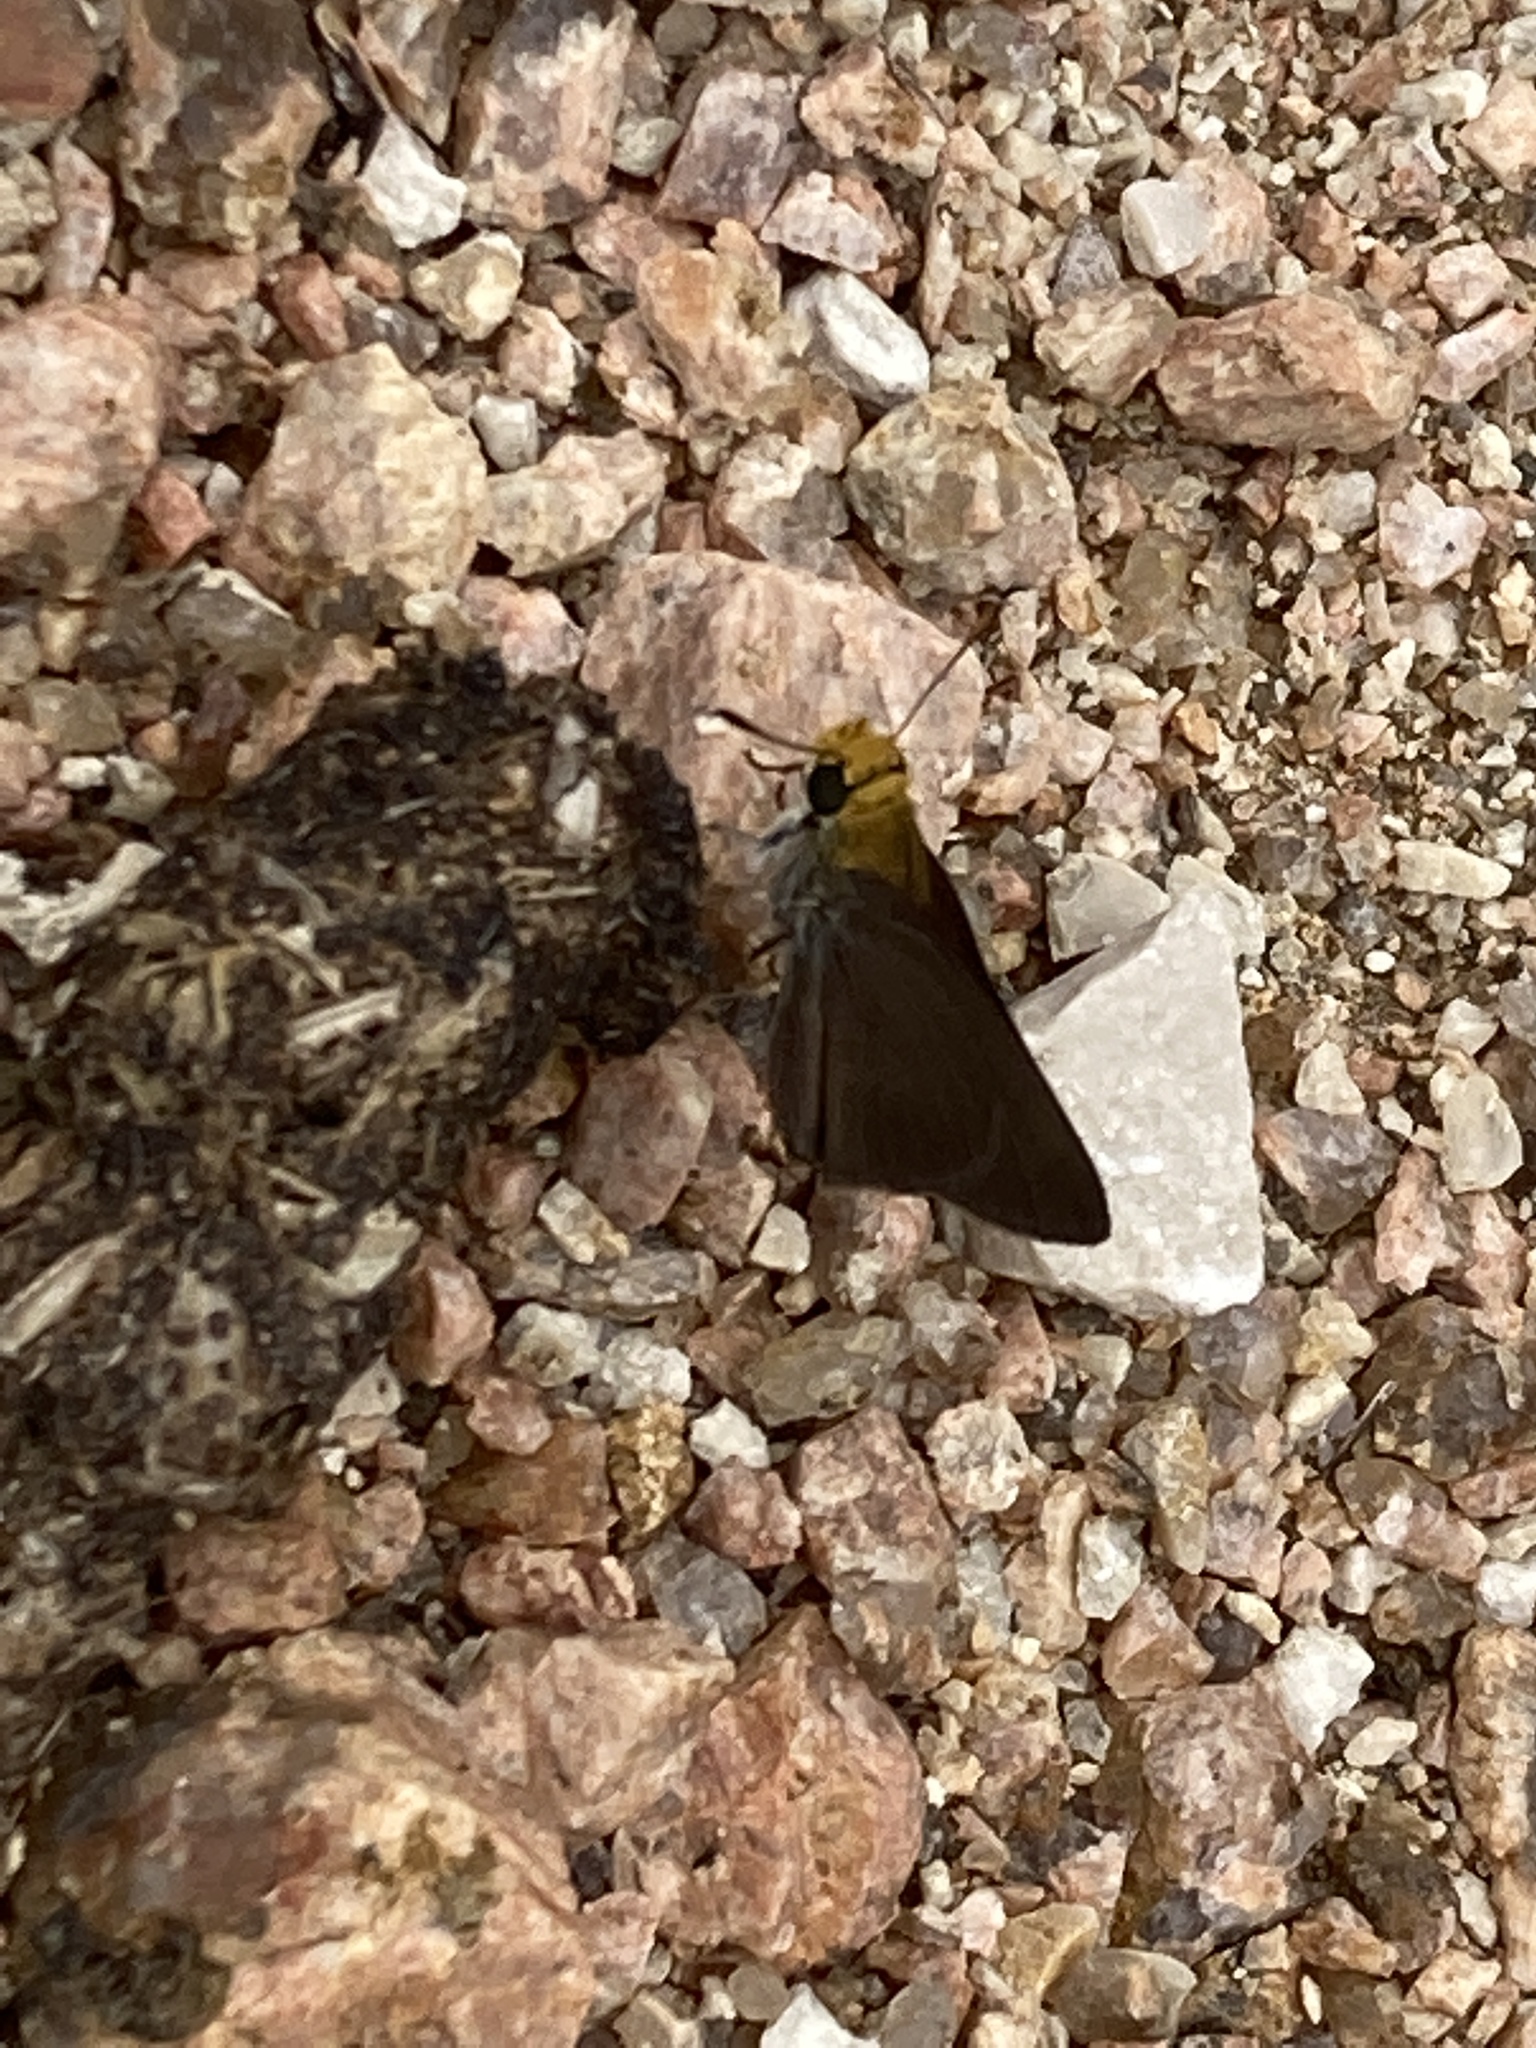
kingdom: Animalia
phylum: Arthropoda
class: Insecta
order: Lepidoptera
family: Hesperiidae
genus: Euphyes
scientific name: Euphyes vestris
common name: Dun skipper
